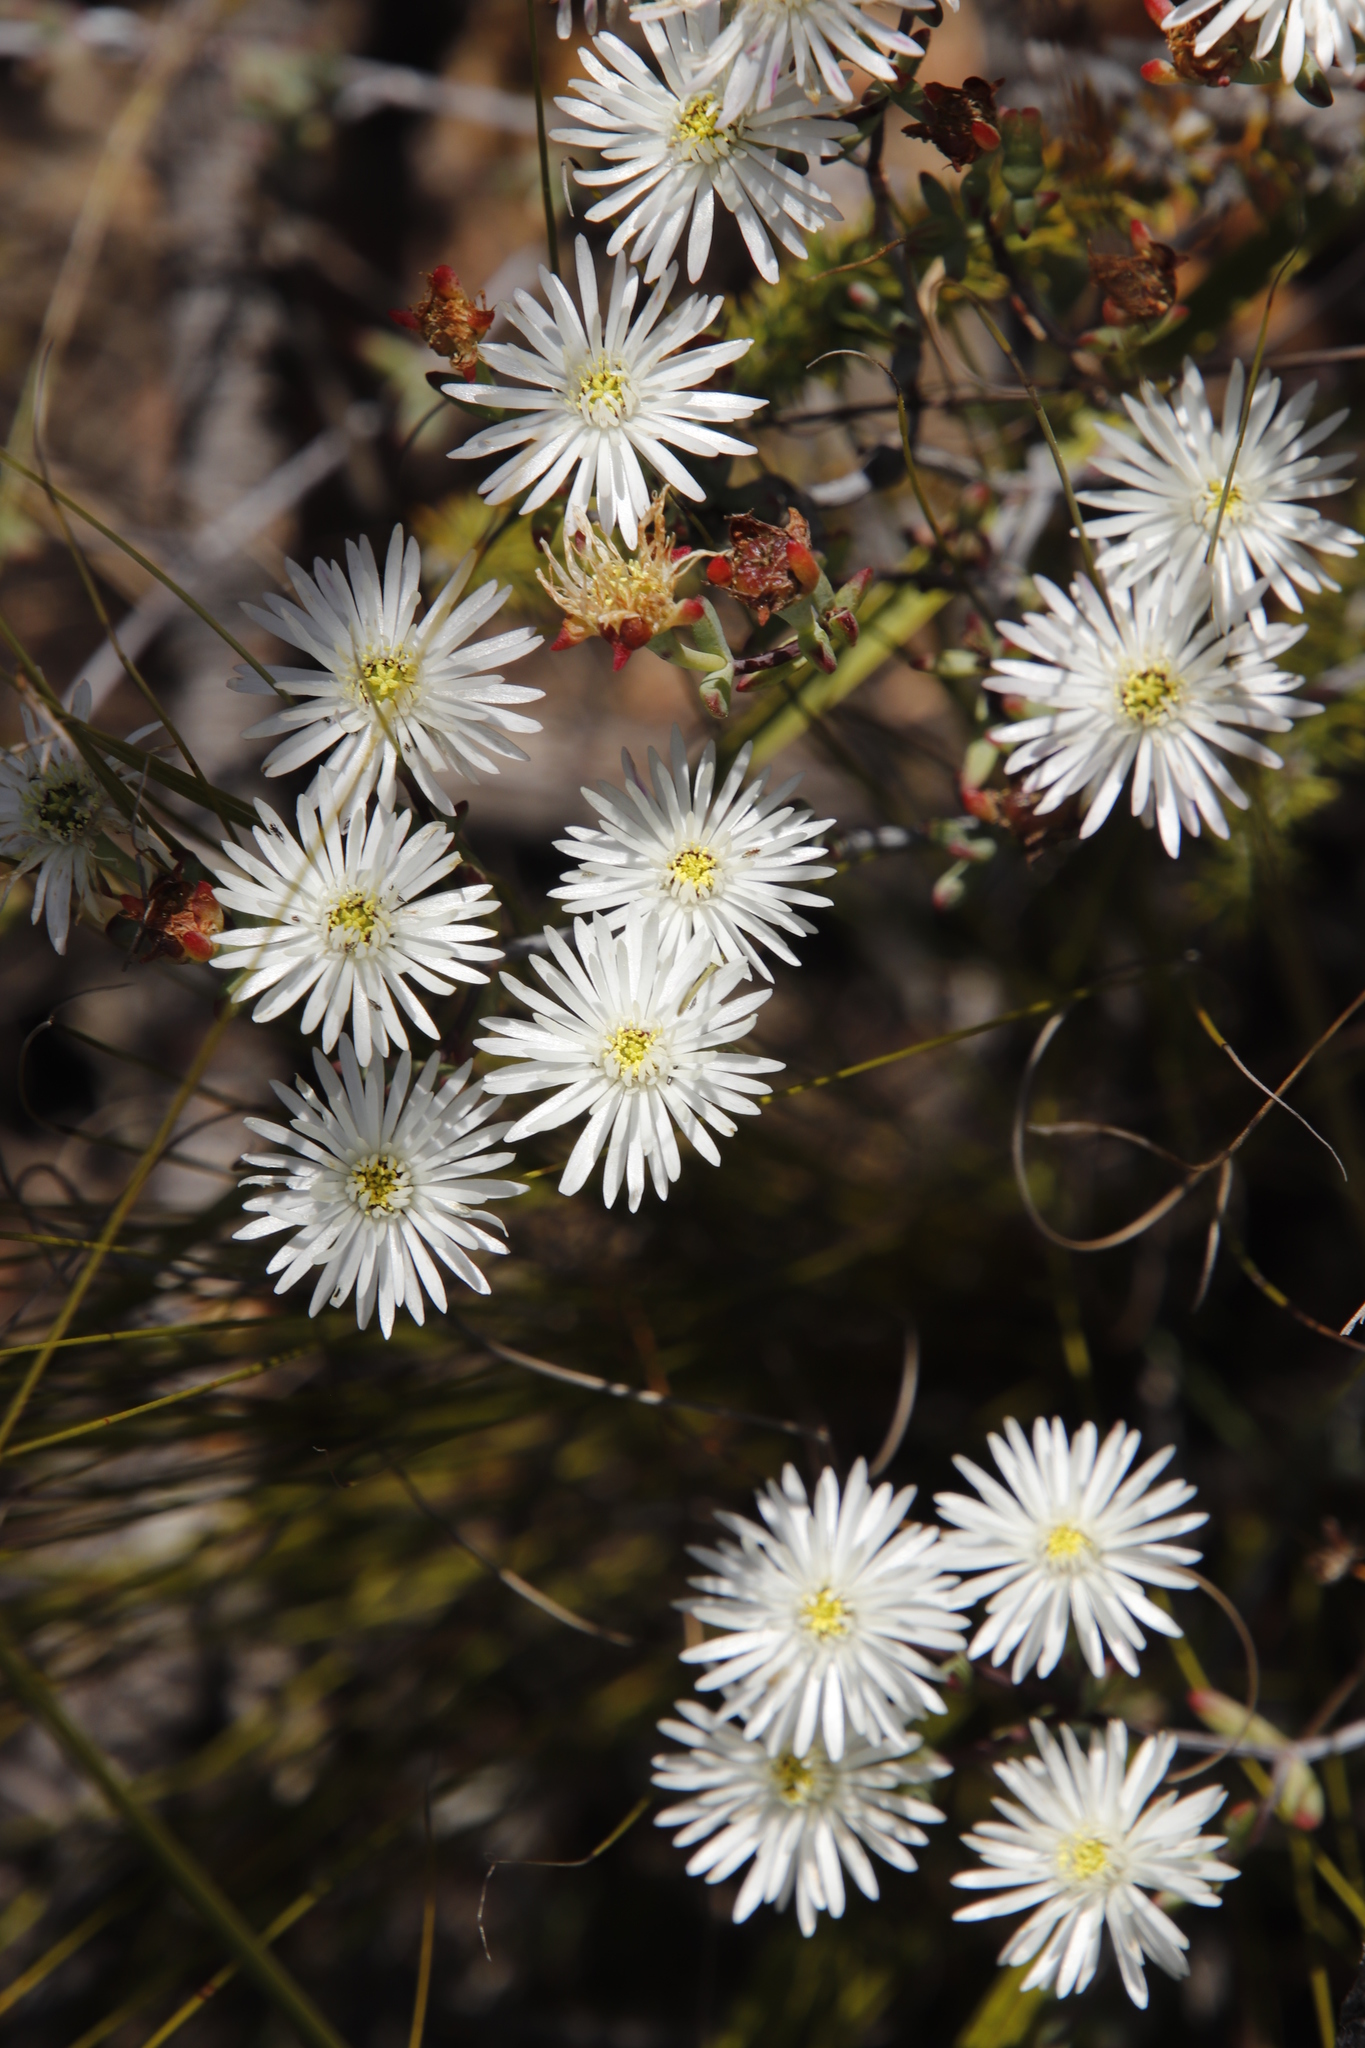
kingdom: Plantae
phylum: Tracheophyta
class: Magnoliopsida
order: Caryophyllales
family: Aizoaceae
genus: Lampranthus
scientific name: Lampranthus falcatus
